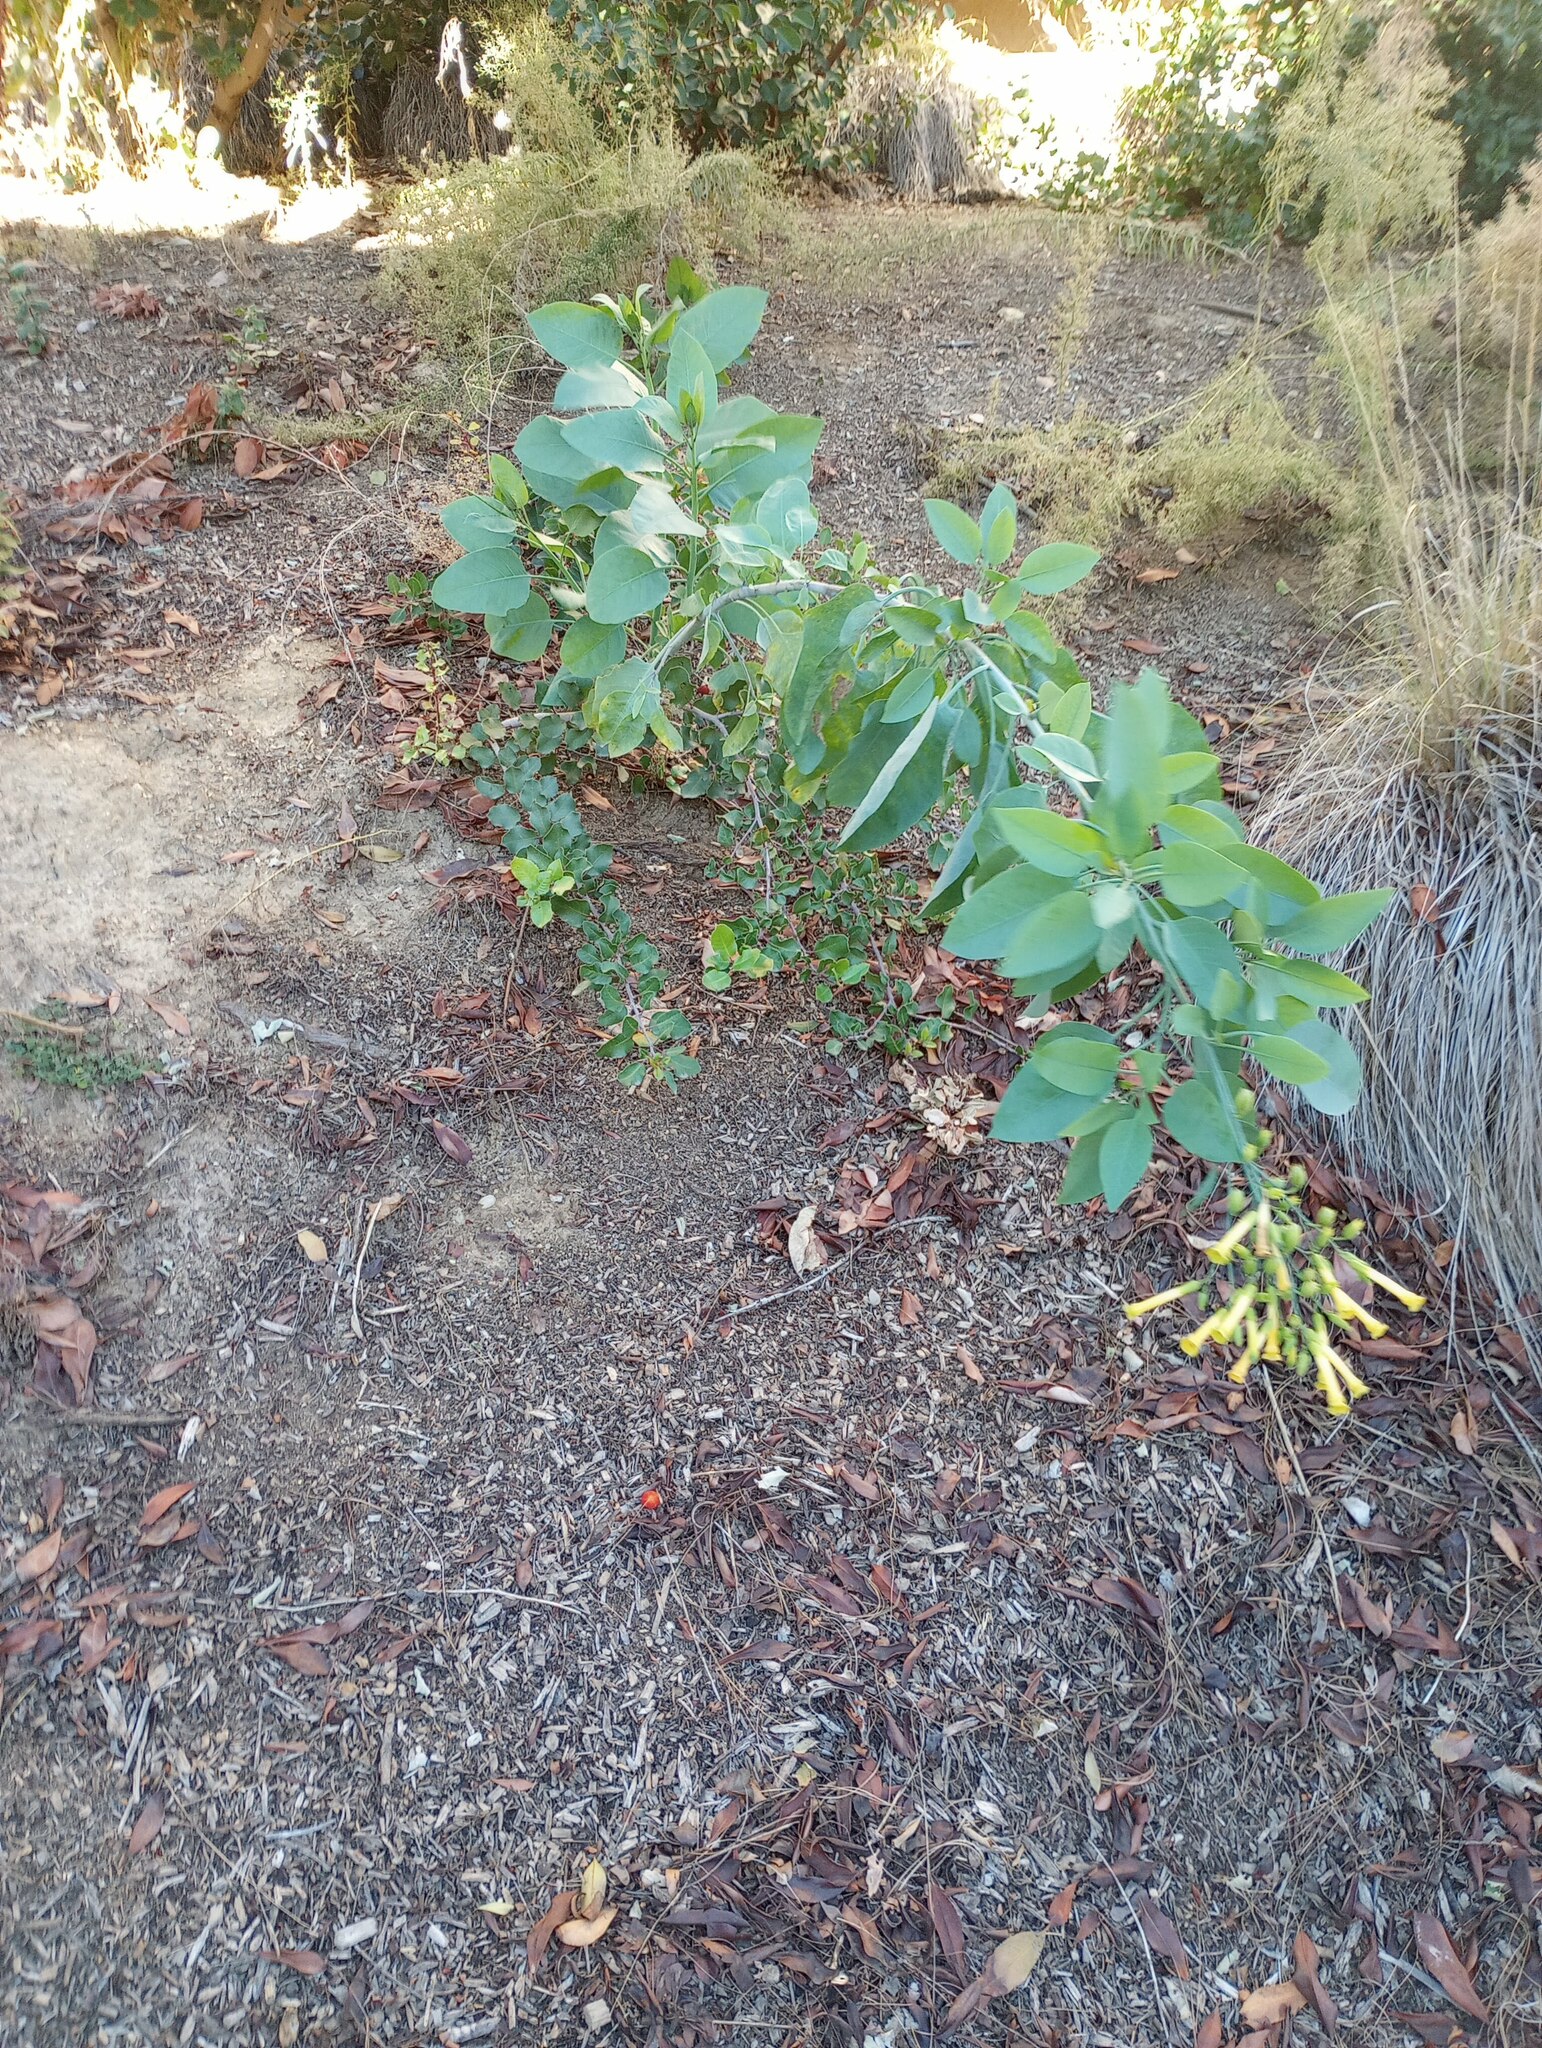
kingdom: Plantae
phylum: Tracheophyta
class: Magnoliopsida
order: Solanales
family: Solanaceae
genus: Nicotiana
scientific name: Nicotiana glauca
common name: Tree tobacco
